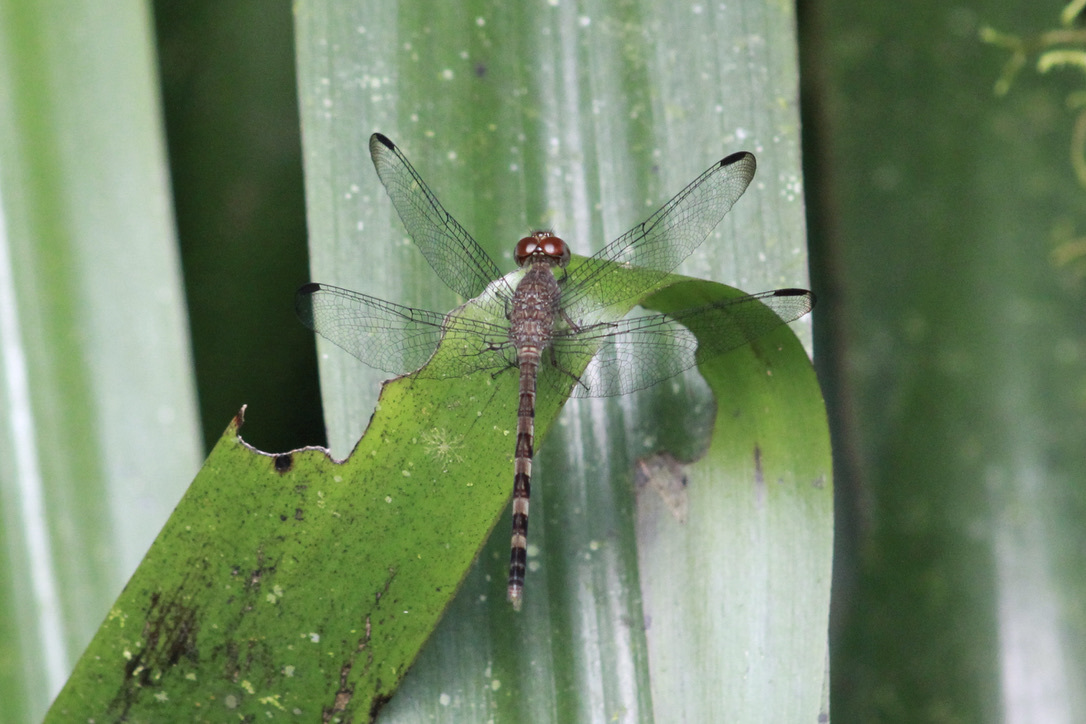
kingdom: Animalia
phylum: Arthropoda
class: Insecta
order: Odonata
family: Libellulidae
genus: Uracis
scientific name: Uracis imbuta
